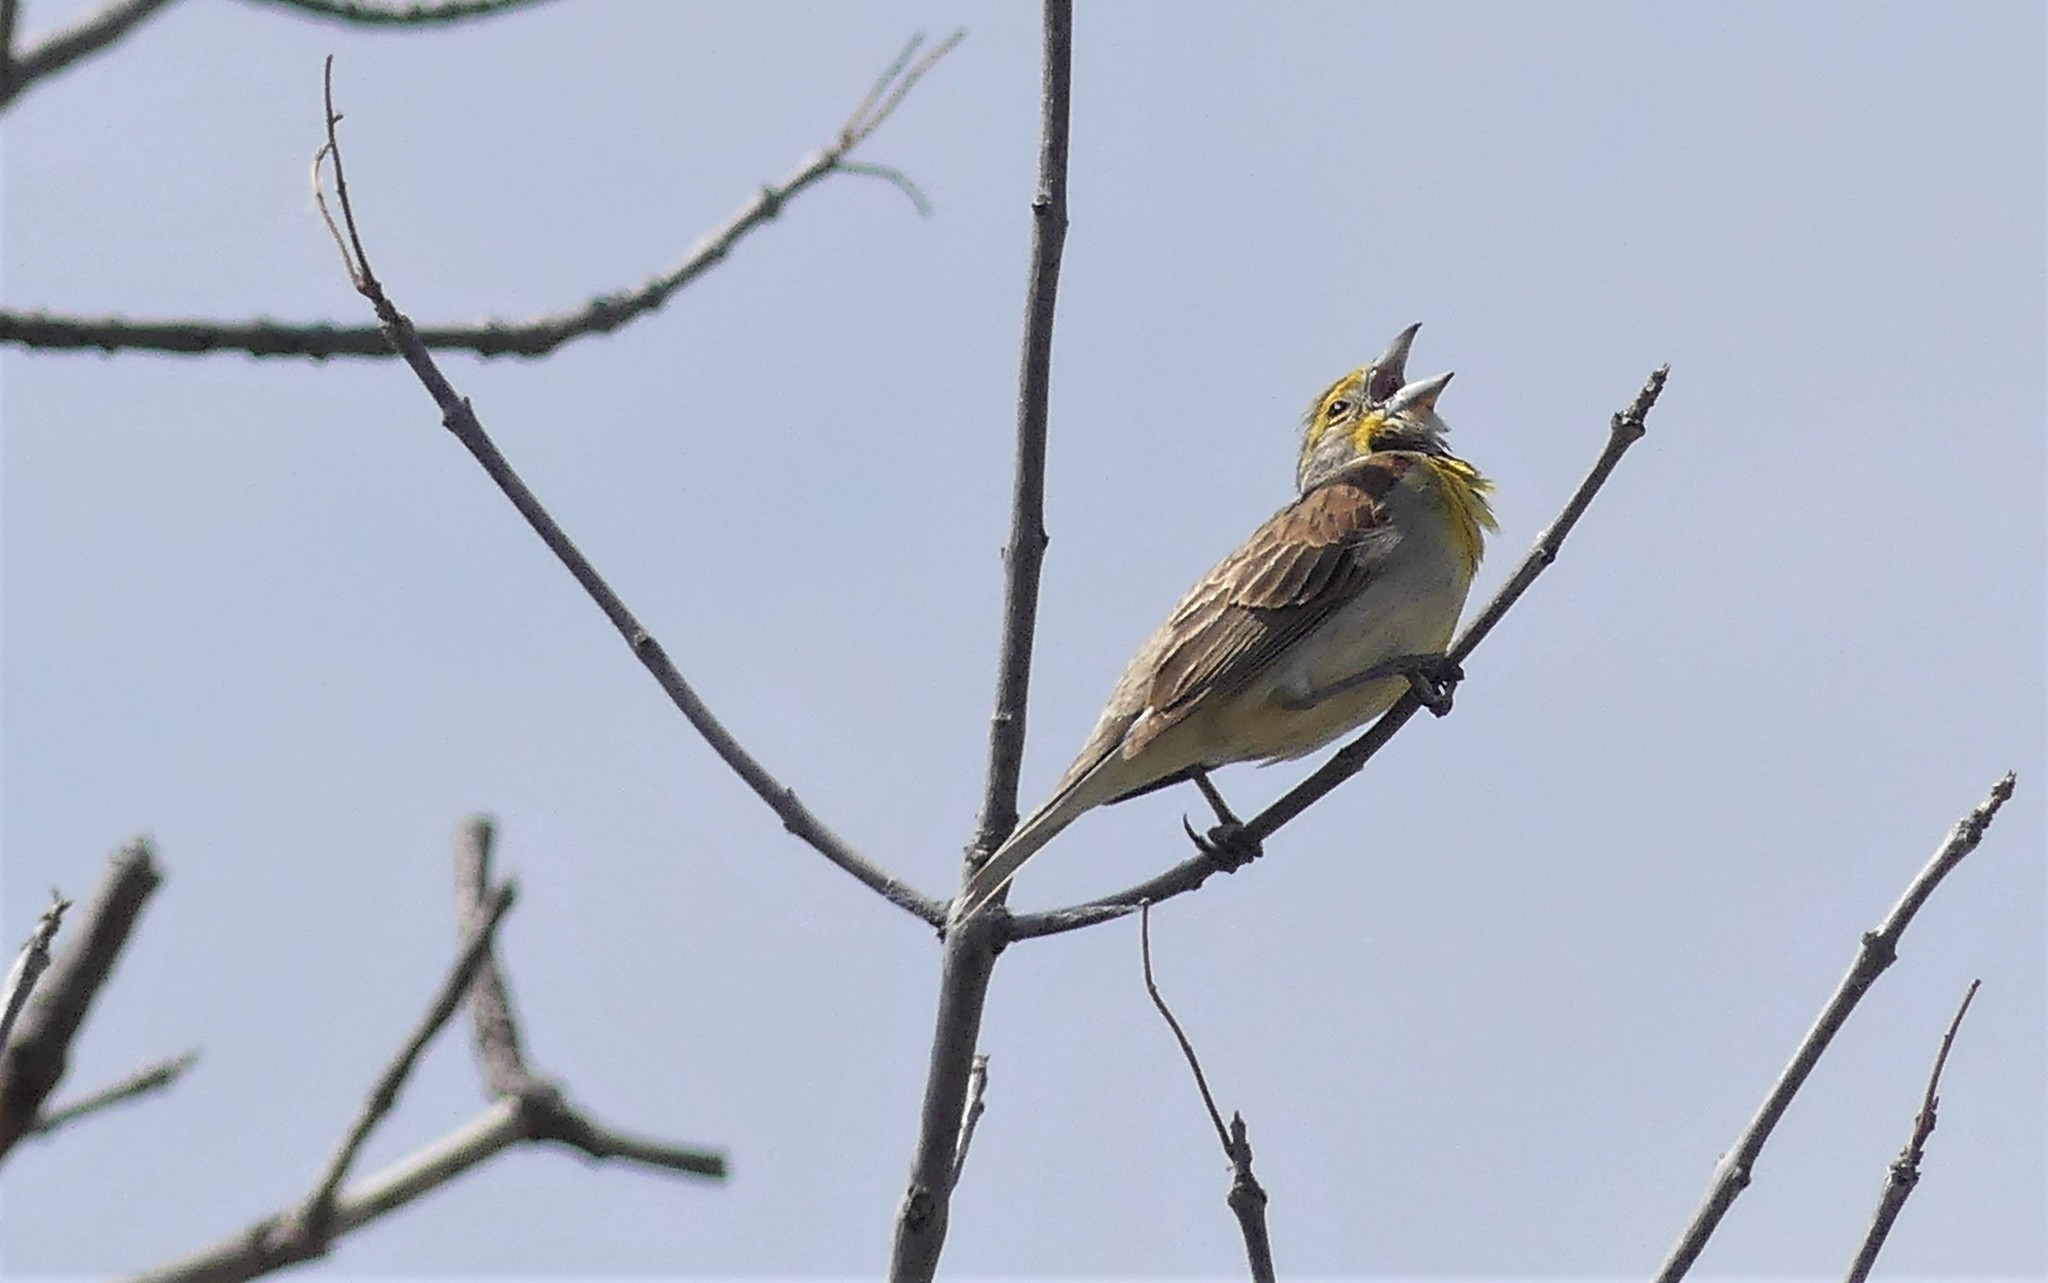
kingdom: Animalia
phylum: Chordata
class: Aves
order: Passeriformes
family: Cardinalidae
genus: Spiza
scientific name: Spiza americana
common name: Dickcissel
